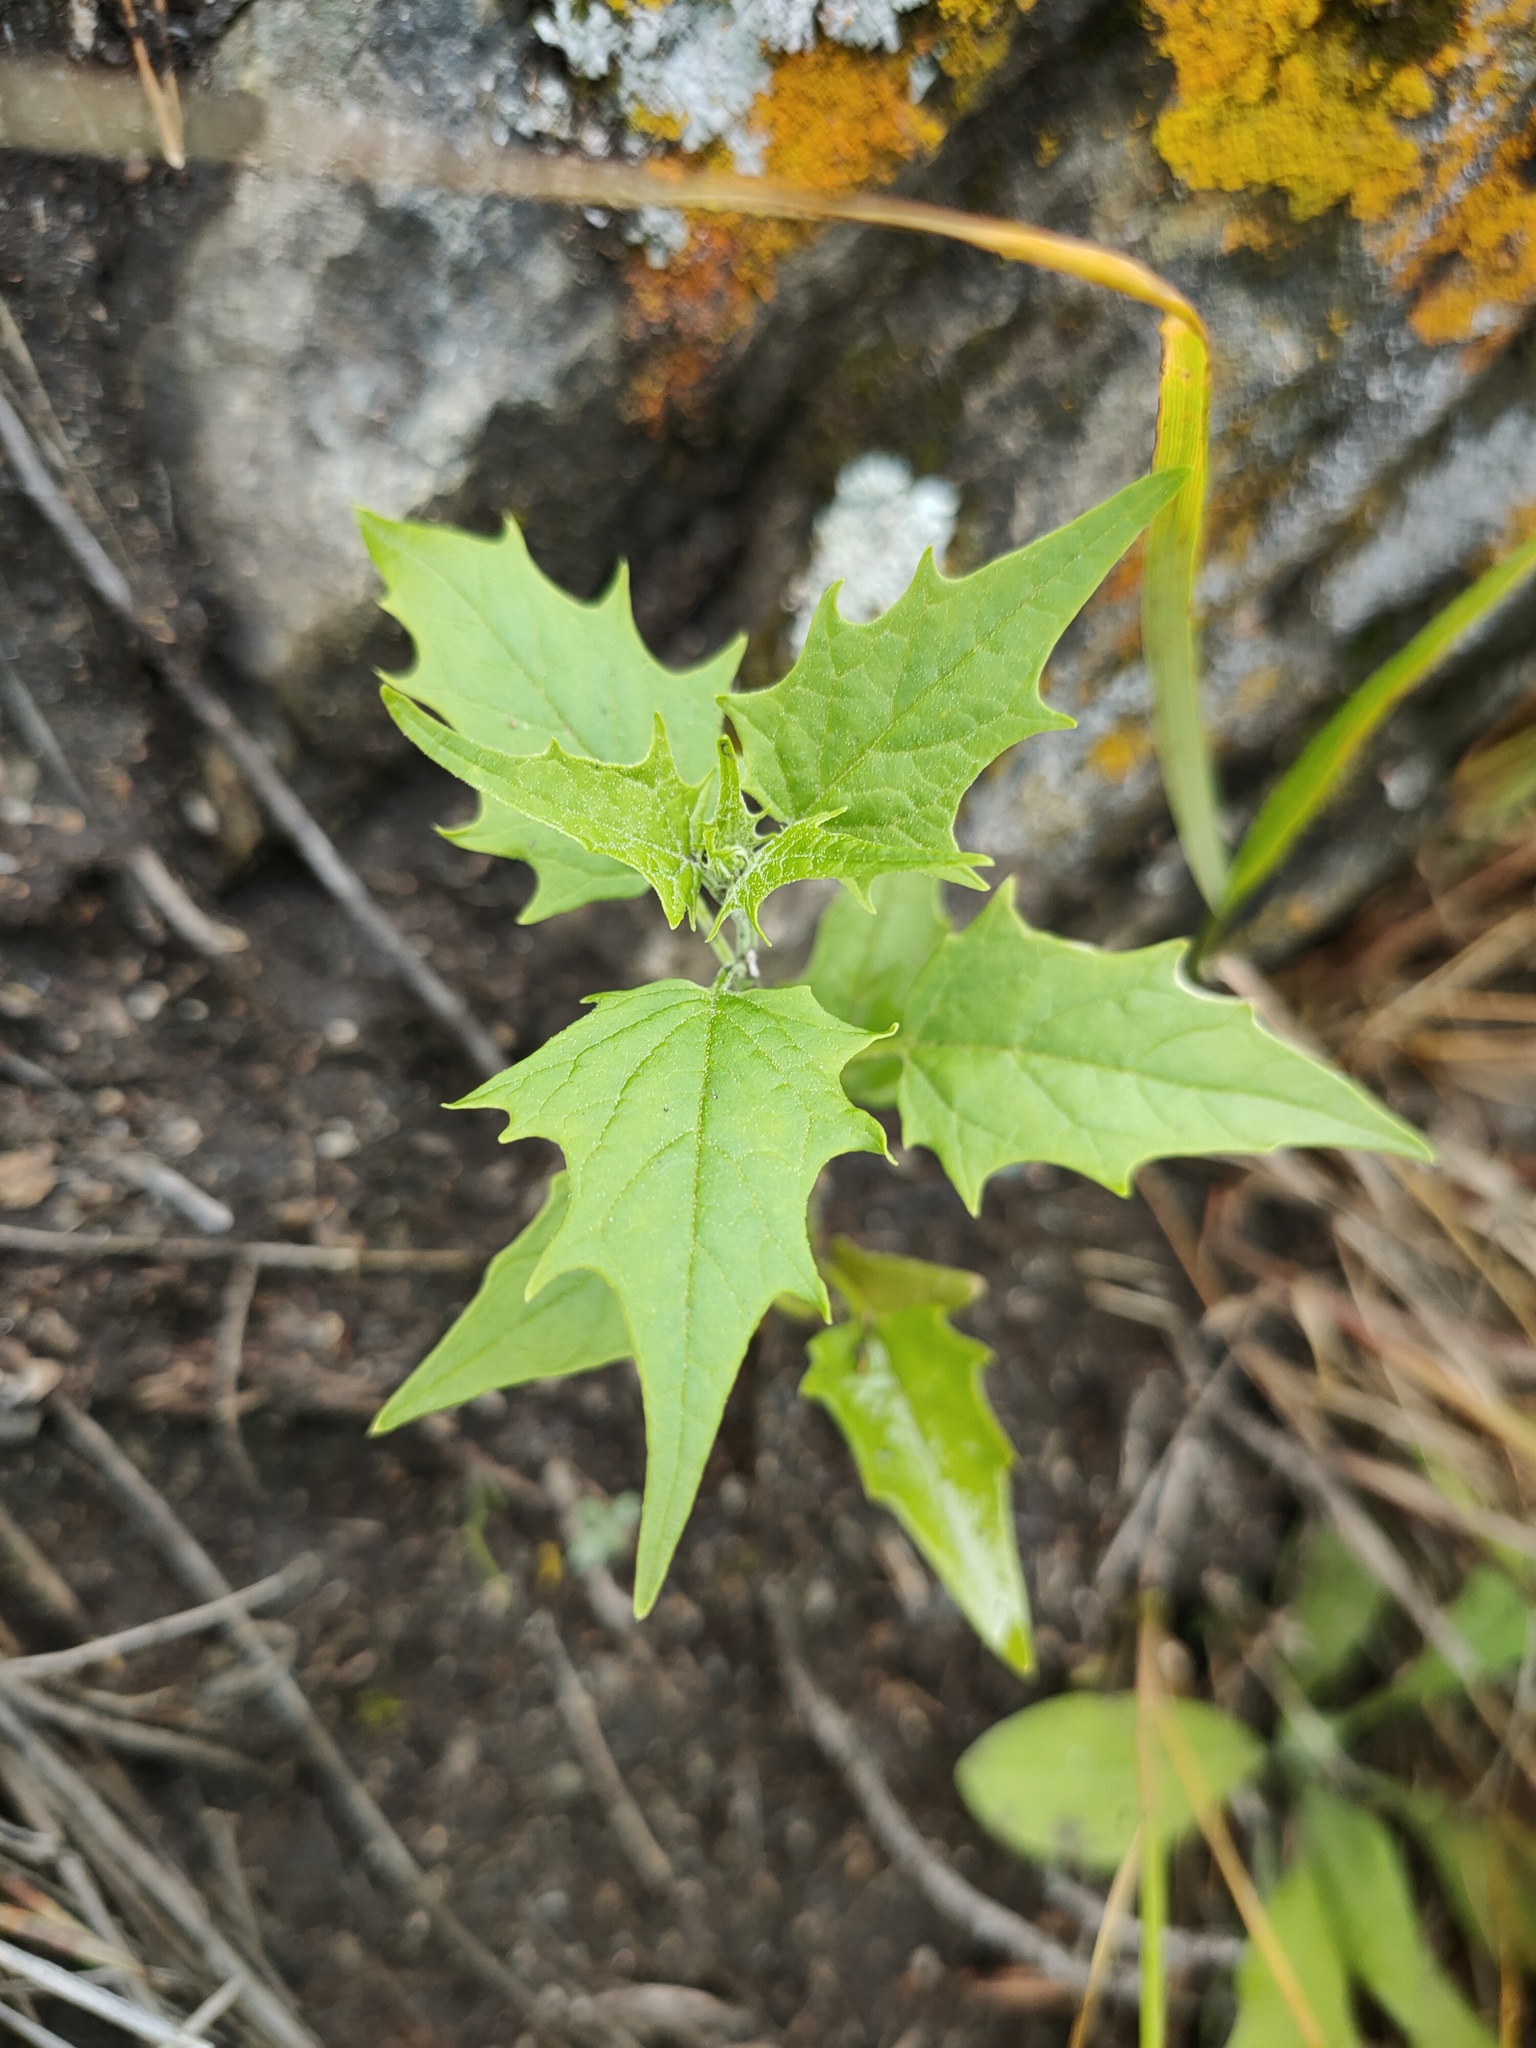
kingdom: Plantae
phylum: Tracheophyta
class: Magnoliopsida
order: Caryophyllales
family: Amaranthaceae
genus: Chenopodiastrum
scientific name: Chenopodiastrum hybridum
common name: Mapleleaf goosefoot
